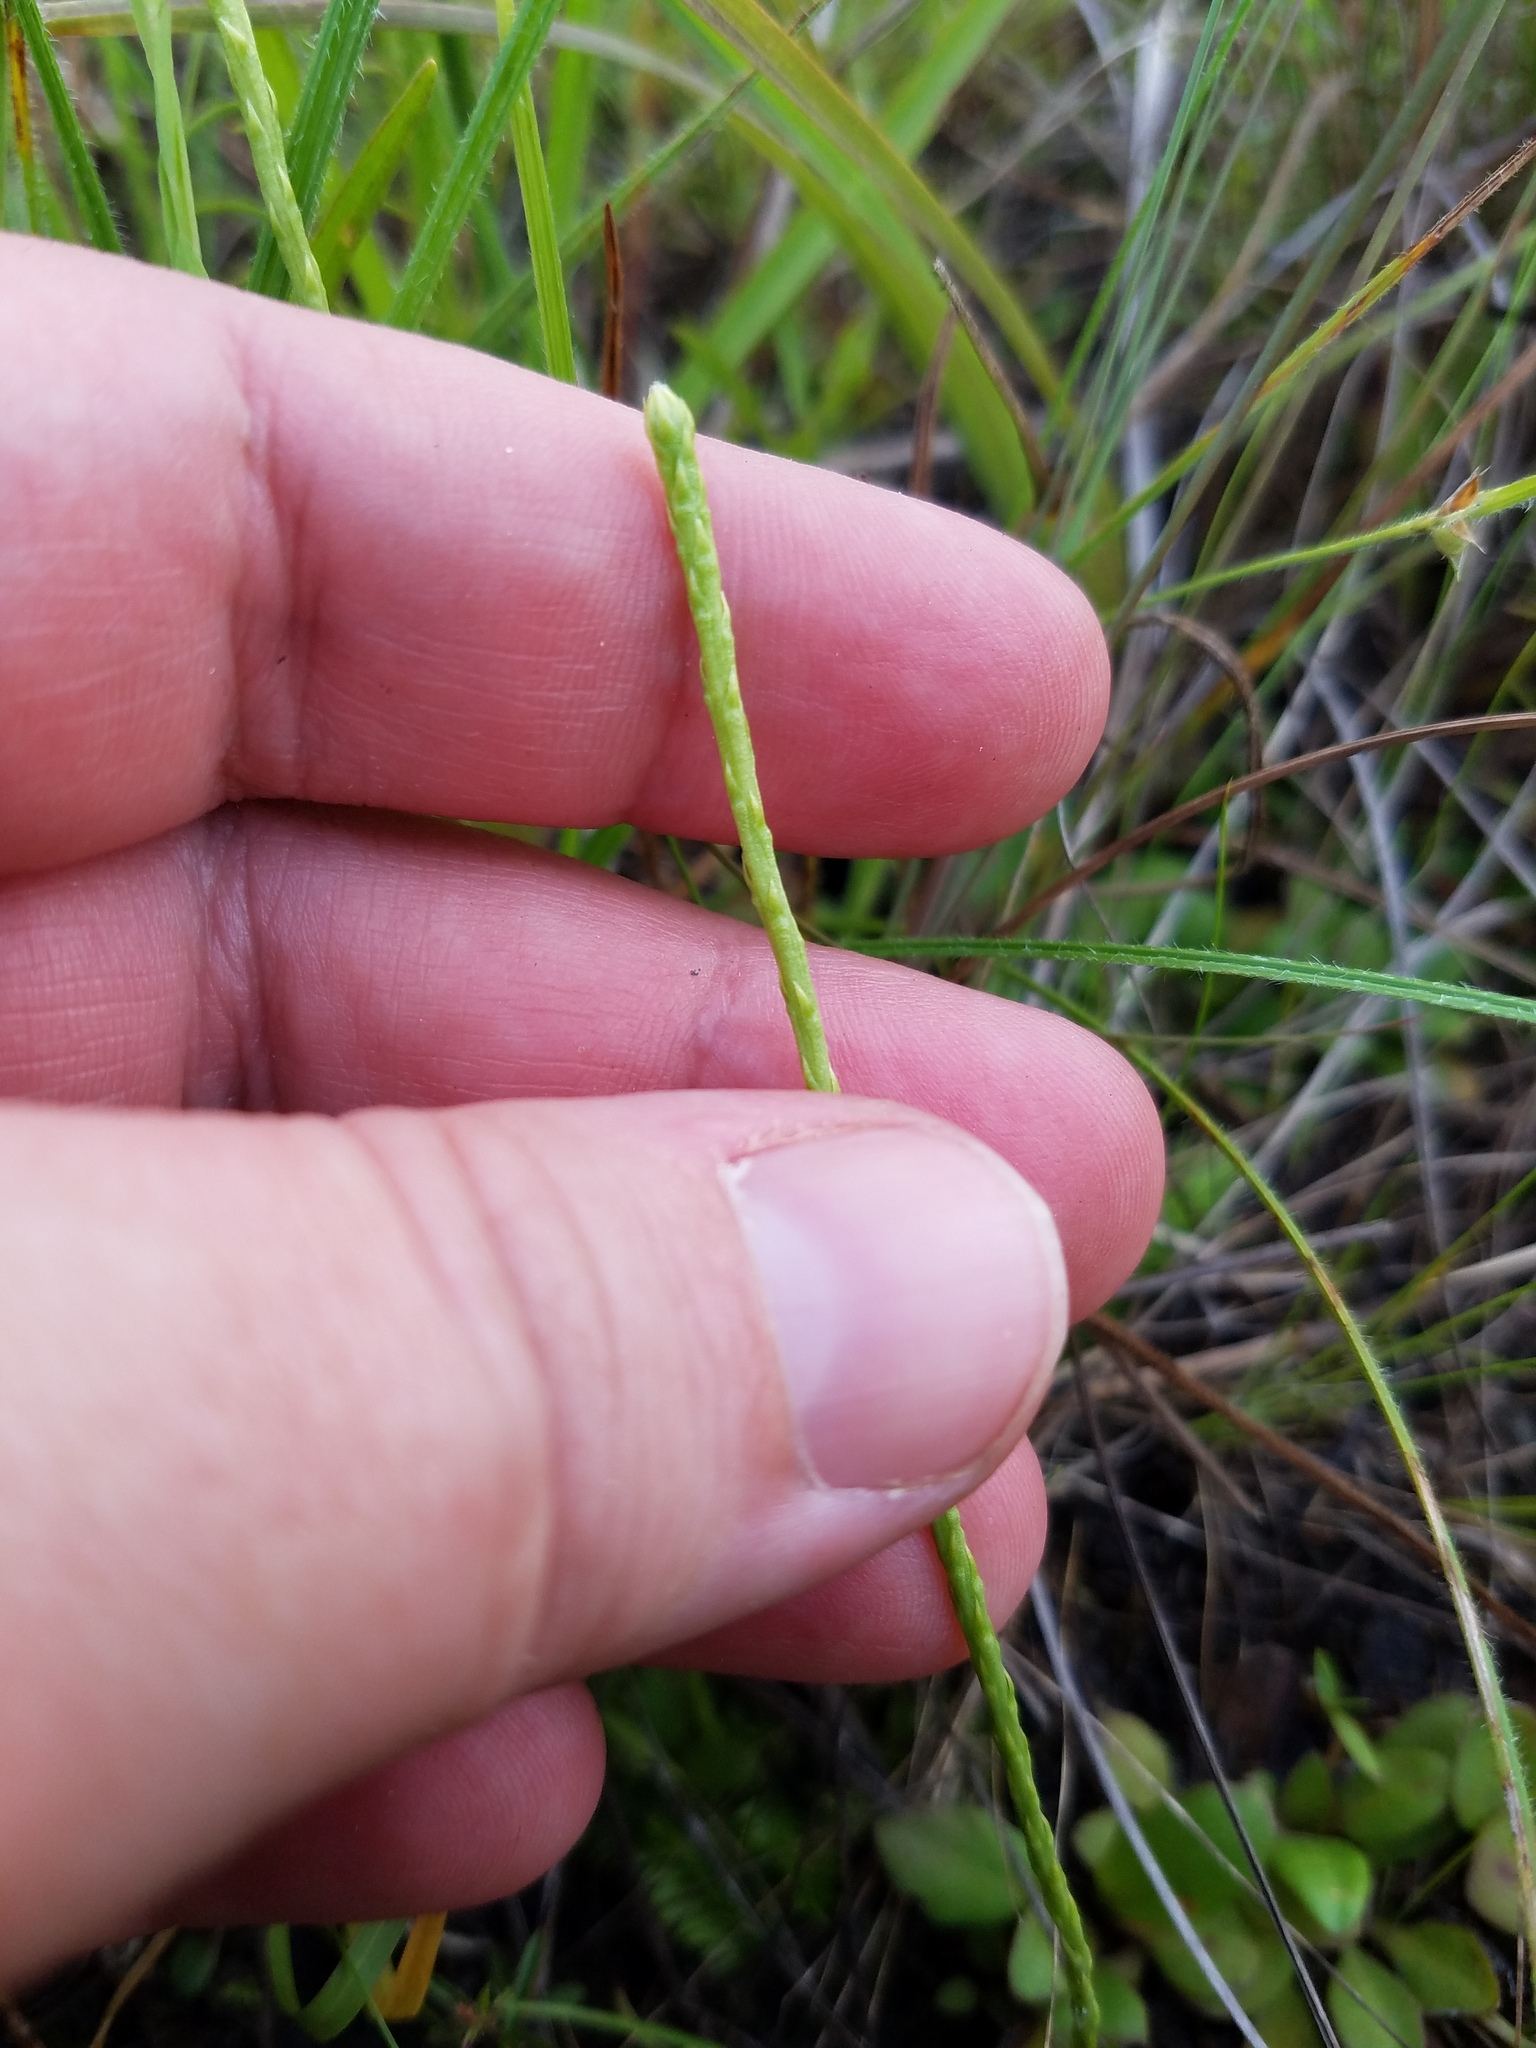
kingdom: Plantae
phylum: Tracheophyta
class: Lycopodiopsida
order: Lycopodiales
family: Lycopodiaceae
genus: Pseudolycopodiella
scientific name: Pseudolycopodiella caroliniana
